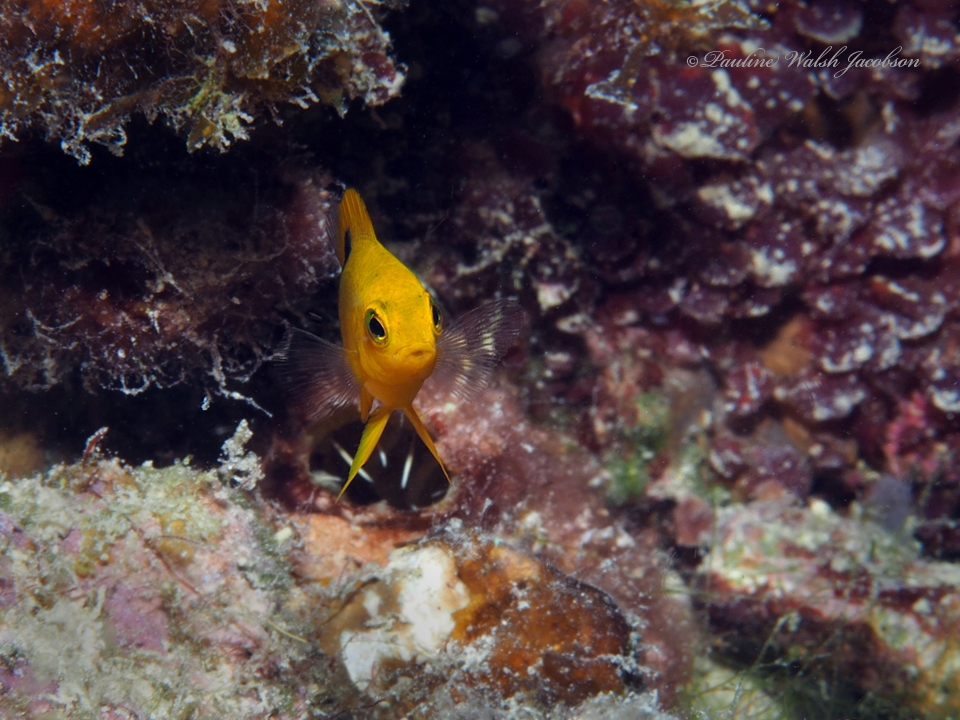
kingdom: Animalia
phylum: Chordata
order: Perciformes
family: Pomacentridae
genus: Stegastes
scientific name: Stegastes planifrons
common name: Threespot damselfish
